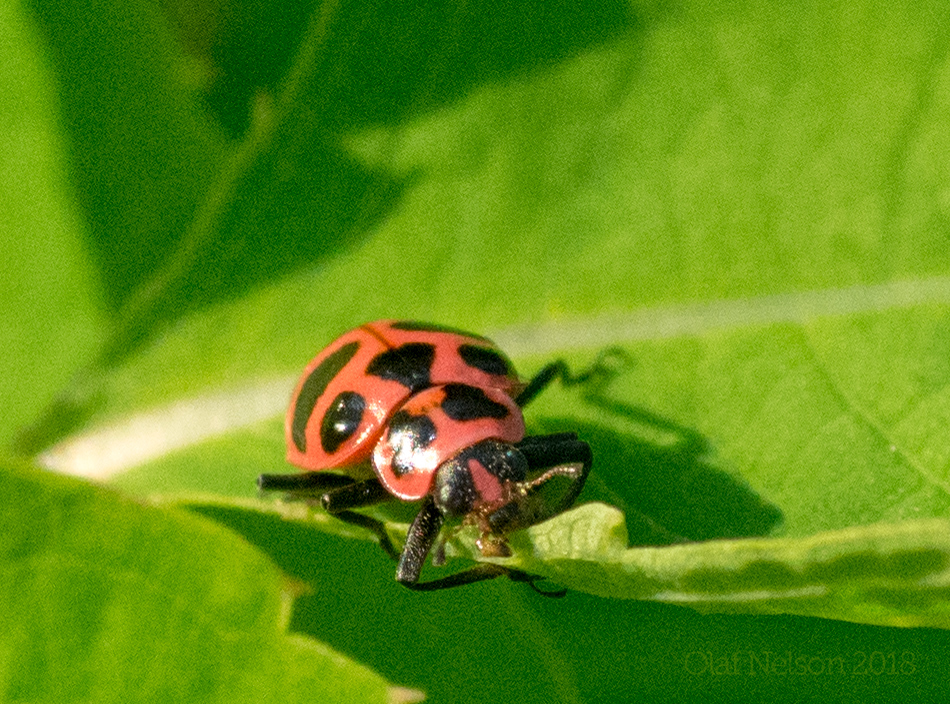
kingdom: Animalia
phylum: Arthropoda
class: Insecta
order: Coleoptera
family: Coccinellidae
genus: Coleomegilla
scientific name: Coleomegilla maculata
